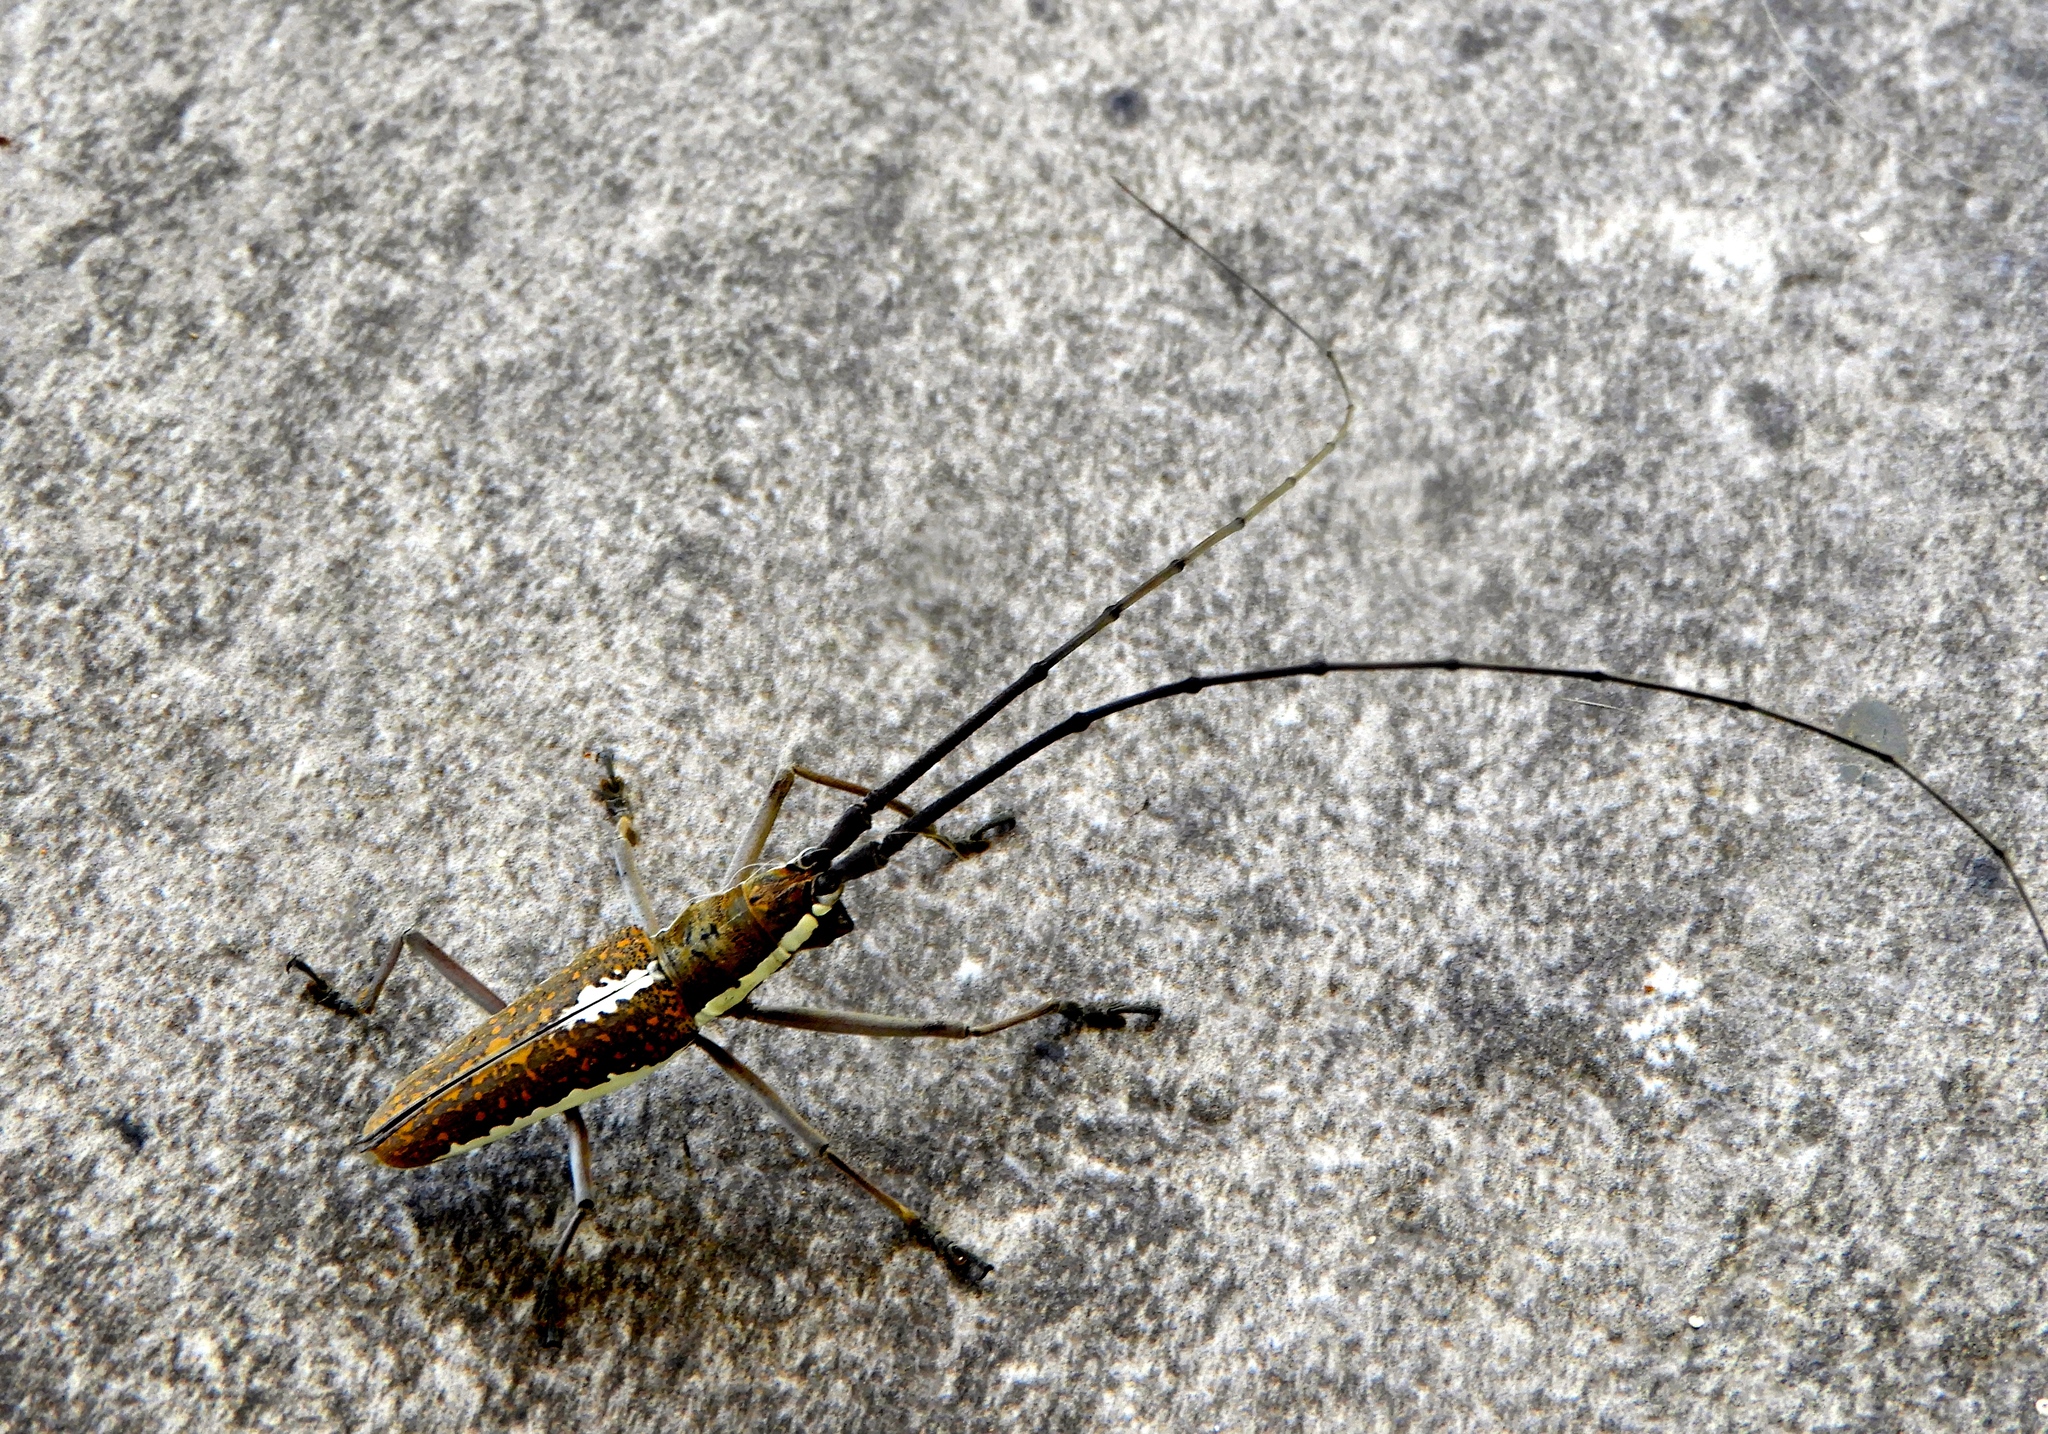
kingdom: Animalia
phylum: Arthropoda
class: Insecta
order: Coleoptera
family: Cerambycidae
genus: Neoptychodes
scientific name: Neoptychodes trilineatus
